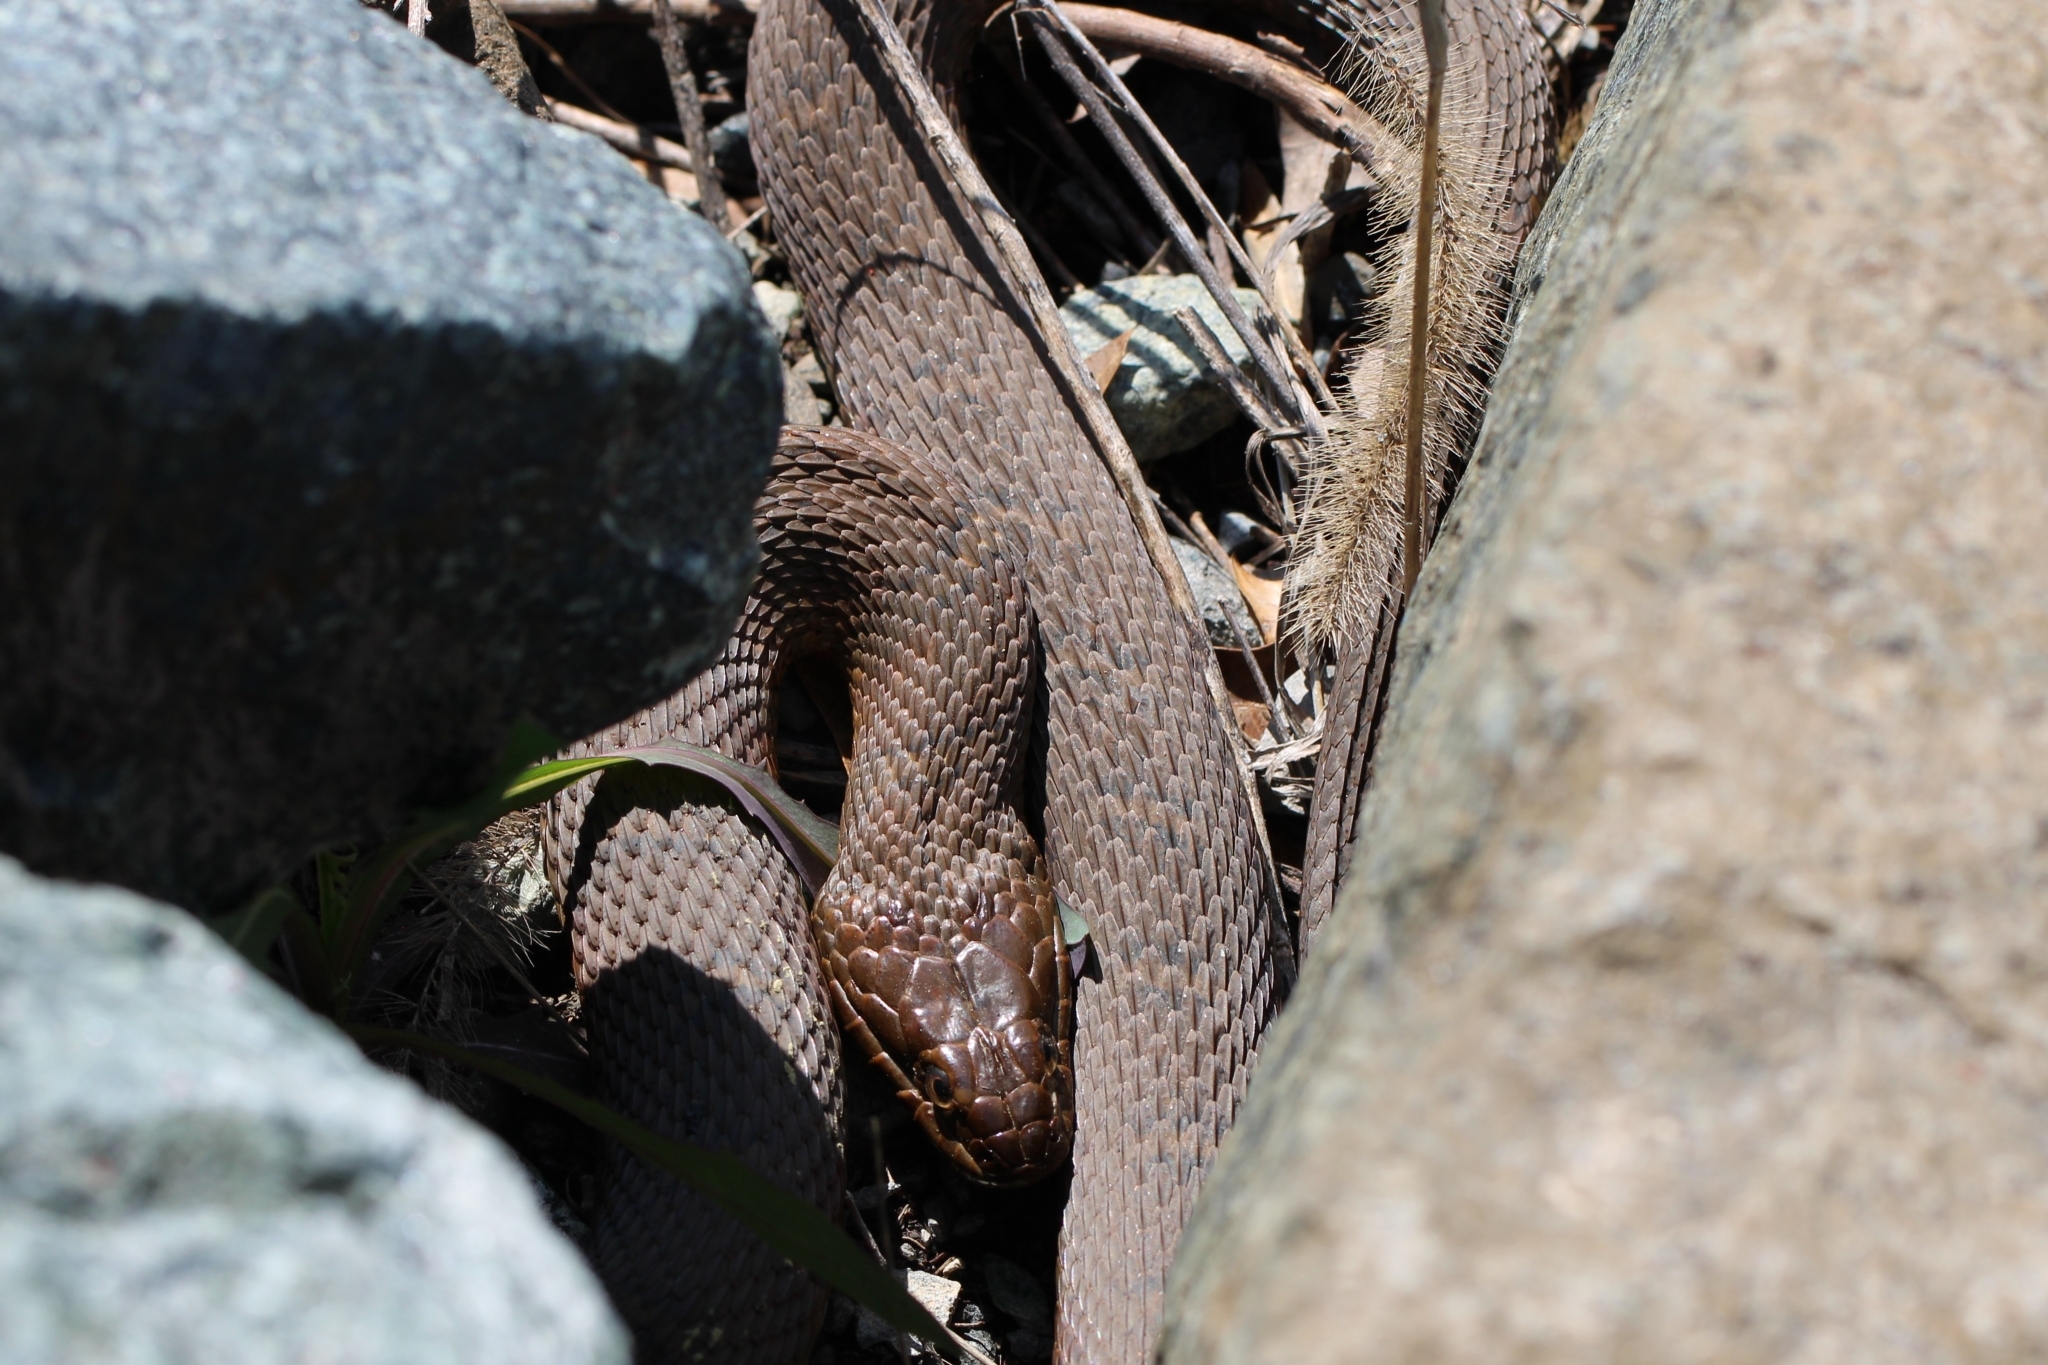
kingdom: Animalia
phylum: Chordata
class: Squamata
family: Colubridae
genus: Nerodia
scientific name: Nerodia sipedon
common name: Northern water snake
